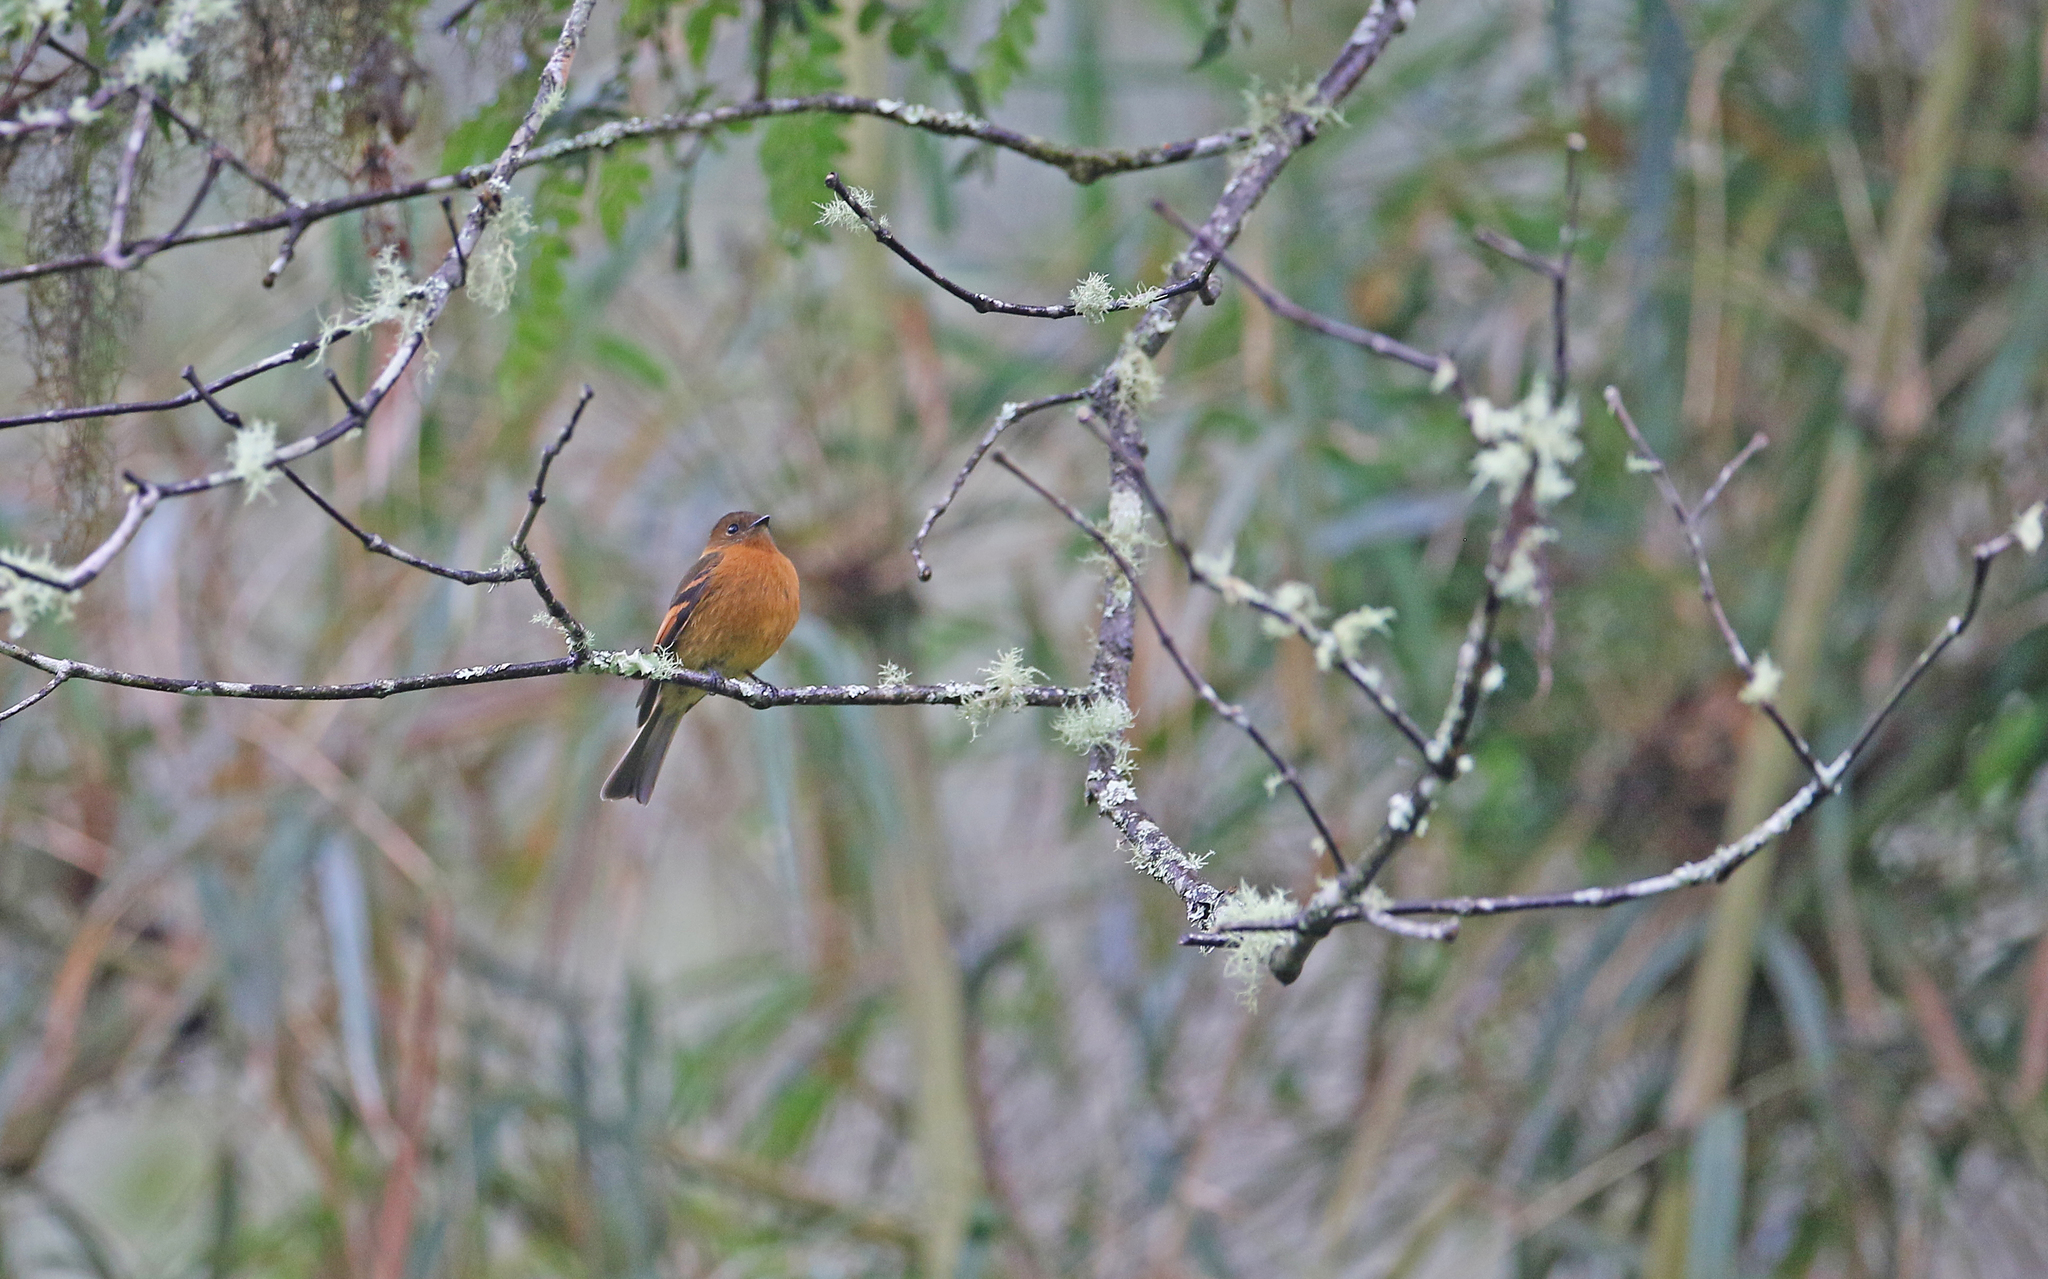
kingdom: Animalia
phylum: Chordata
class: Aves
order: Passeriformes
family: Tyrannidae
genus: Pyrrhomyias
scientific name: Pyrrhomyias cinnamomeus
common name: Cinnamon flycatcher
